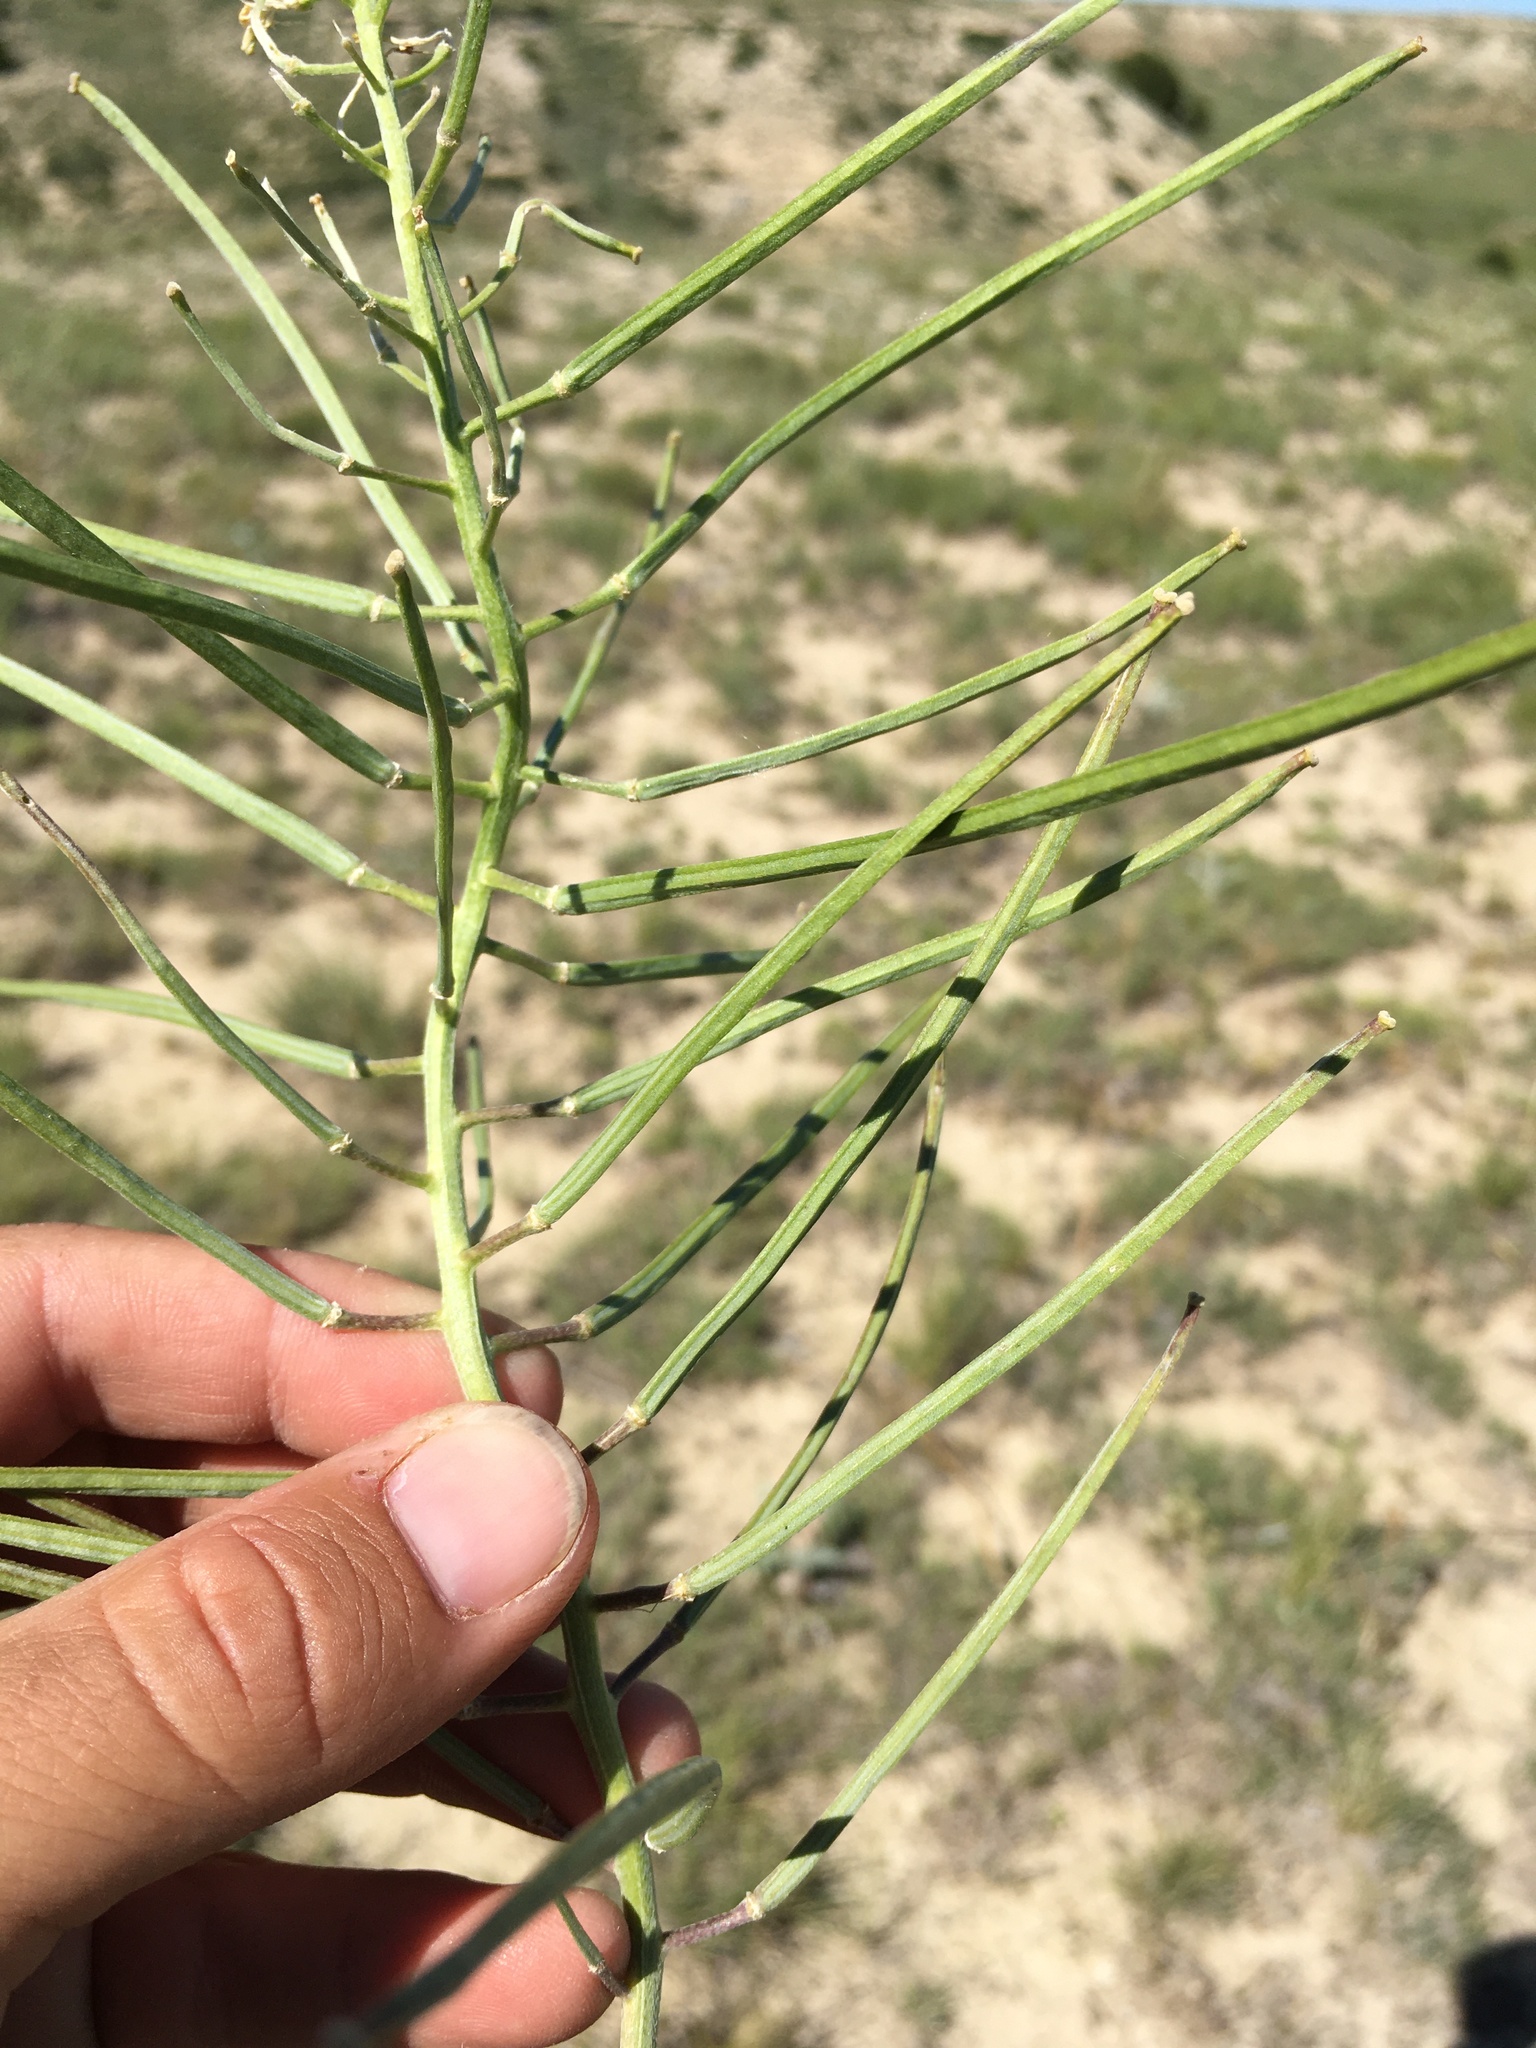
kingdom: Plantae
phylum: Tracheophyta
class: Magnoliopsida
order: Brassicales
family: Brassicaceae
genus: Erysimum
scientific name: Erysimum asperum
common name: Western wallflower
